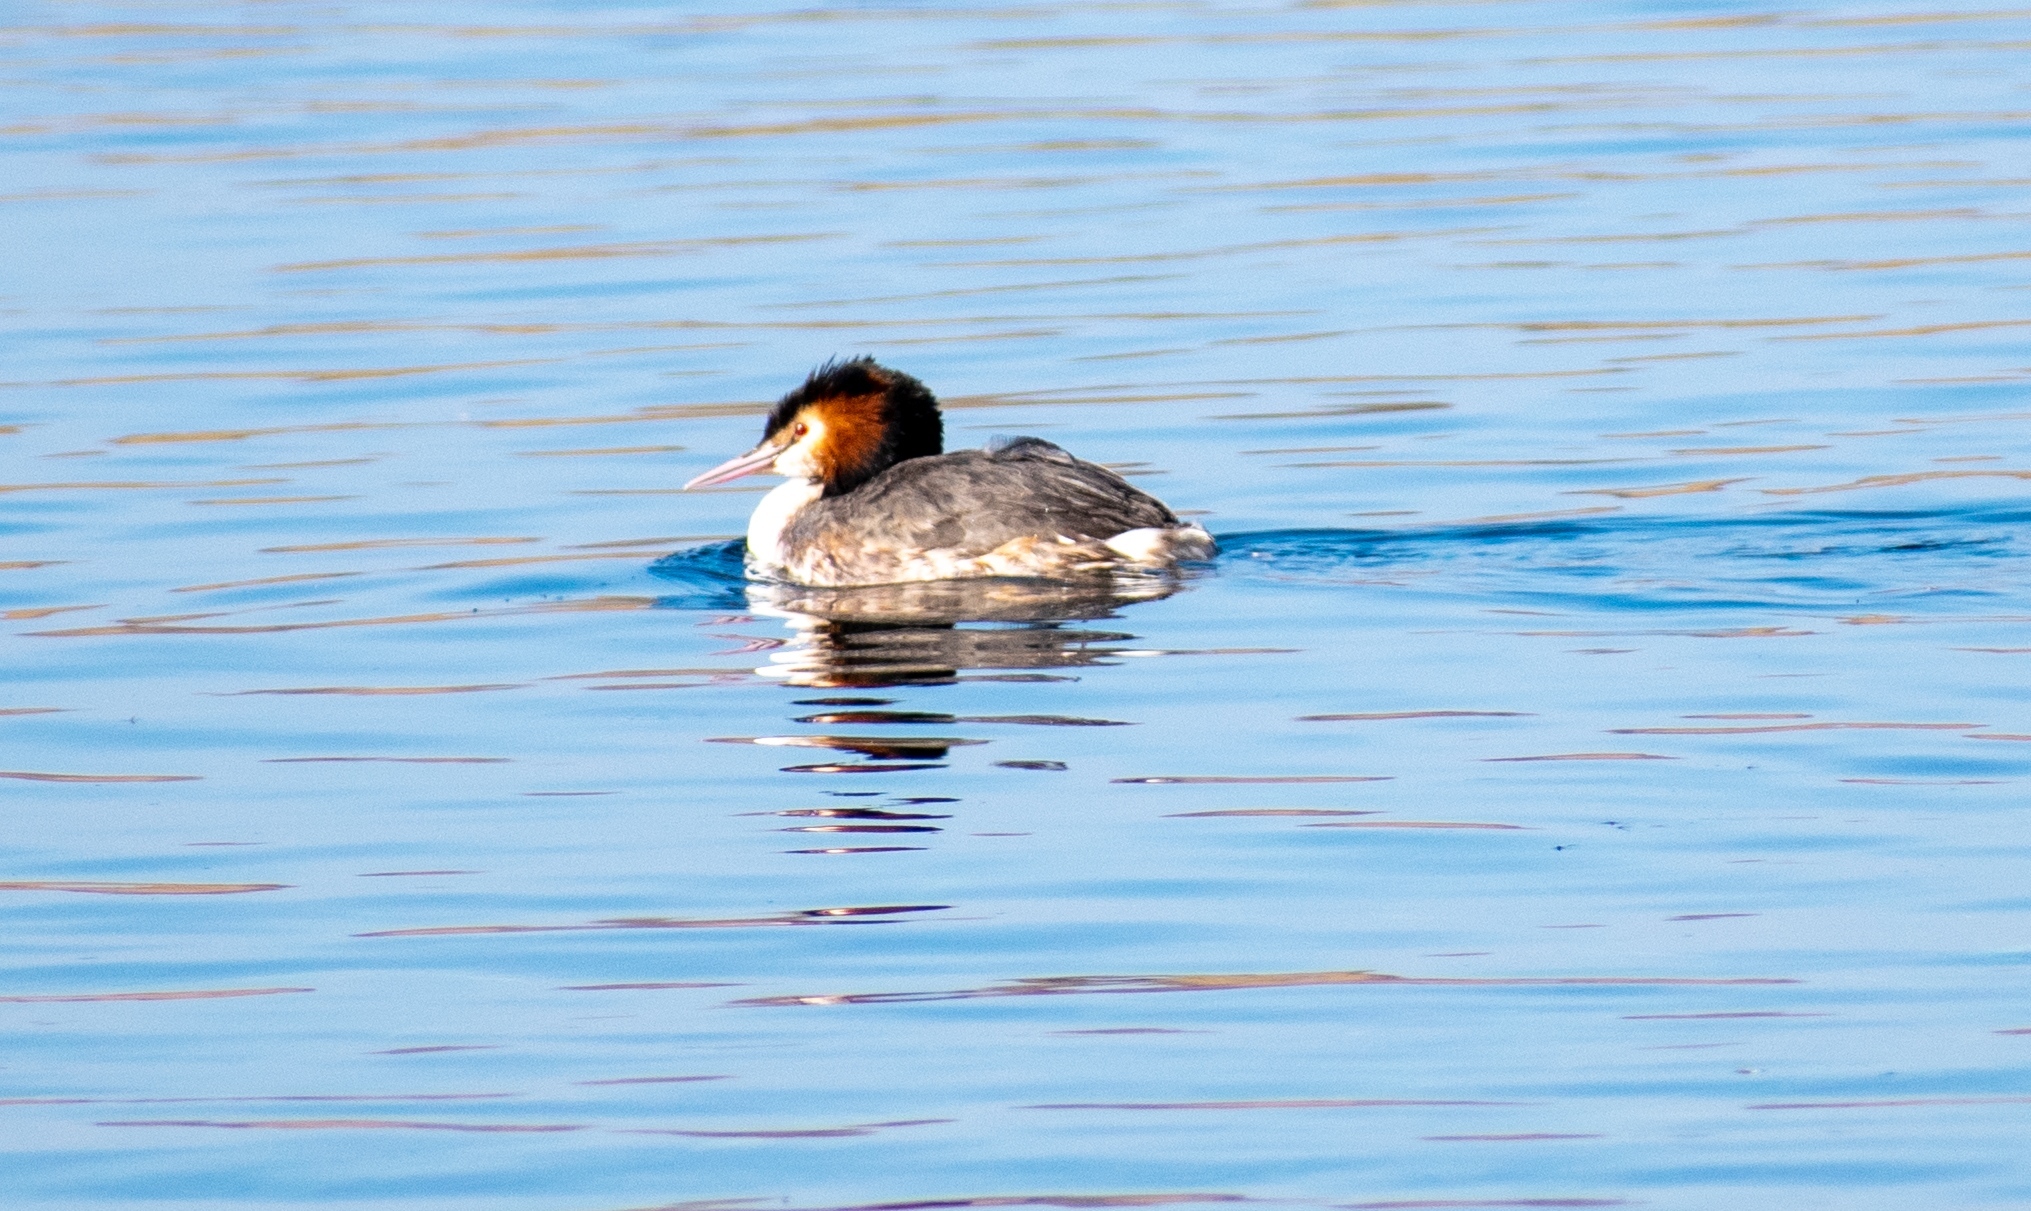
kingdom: Animalia
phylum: Chordata
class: Aves
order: Podicipediformes
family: Podicipedidae
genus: Podiceps
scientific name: Podiceps cristatus
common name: Great crested grebe
